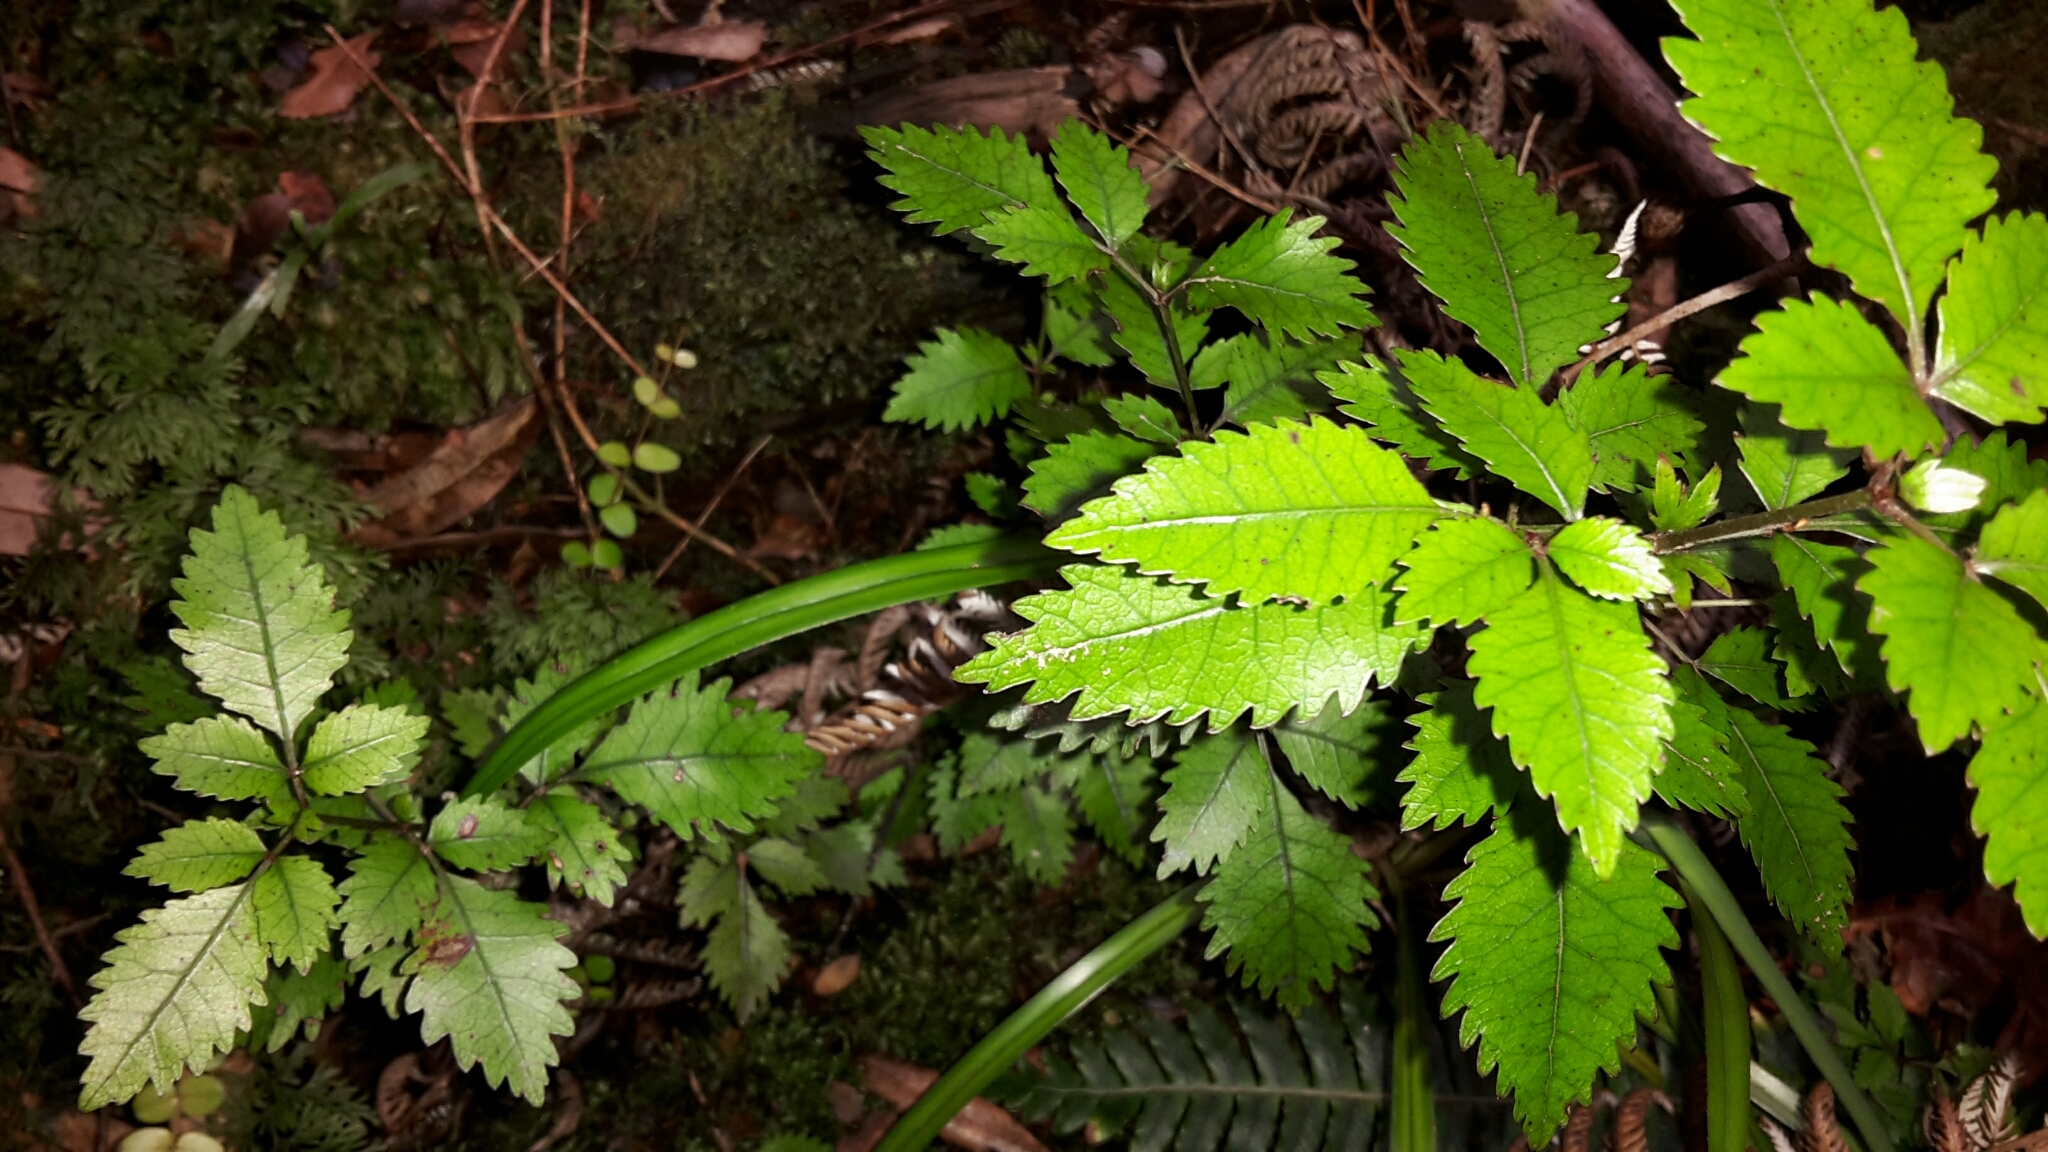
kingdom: Plantae
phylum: Tracheophyta
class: Magnoliopsida
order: Oxalidales
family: Cunoniaceae
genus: Pterophylla
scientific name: Pterophylla racemosa
